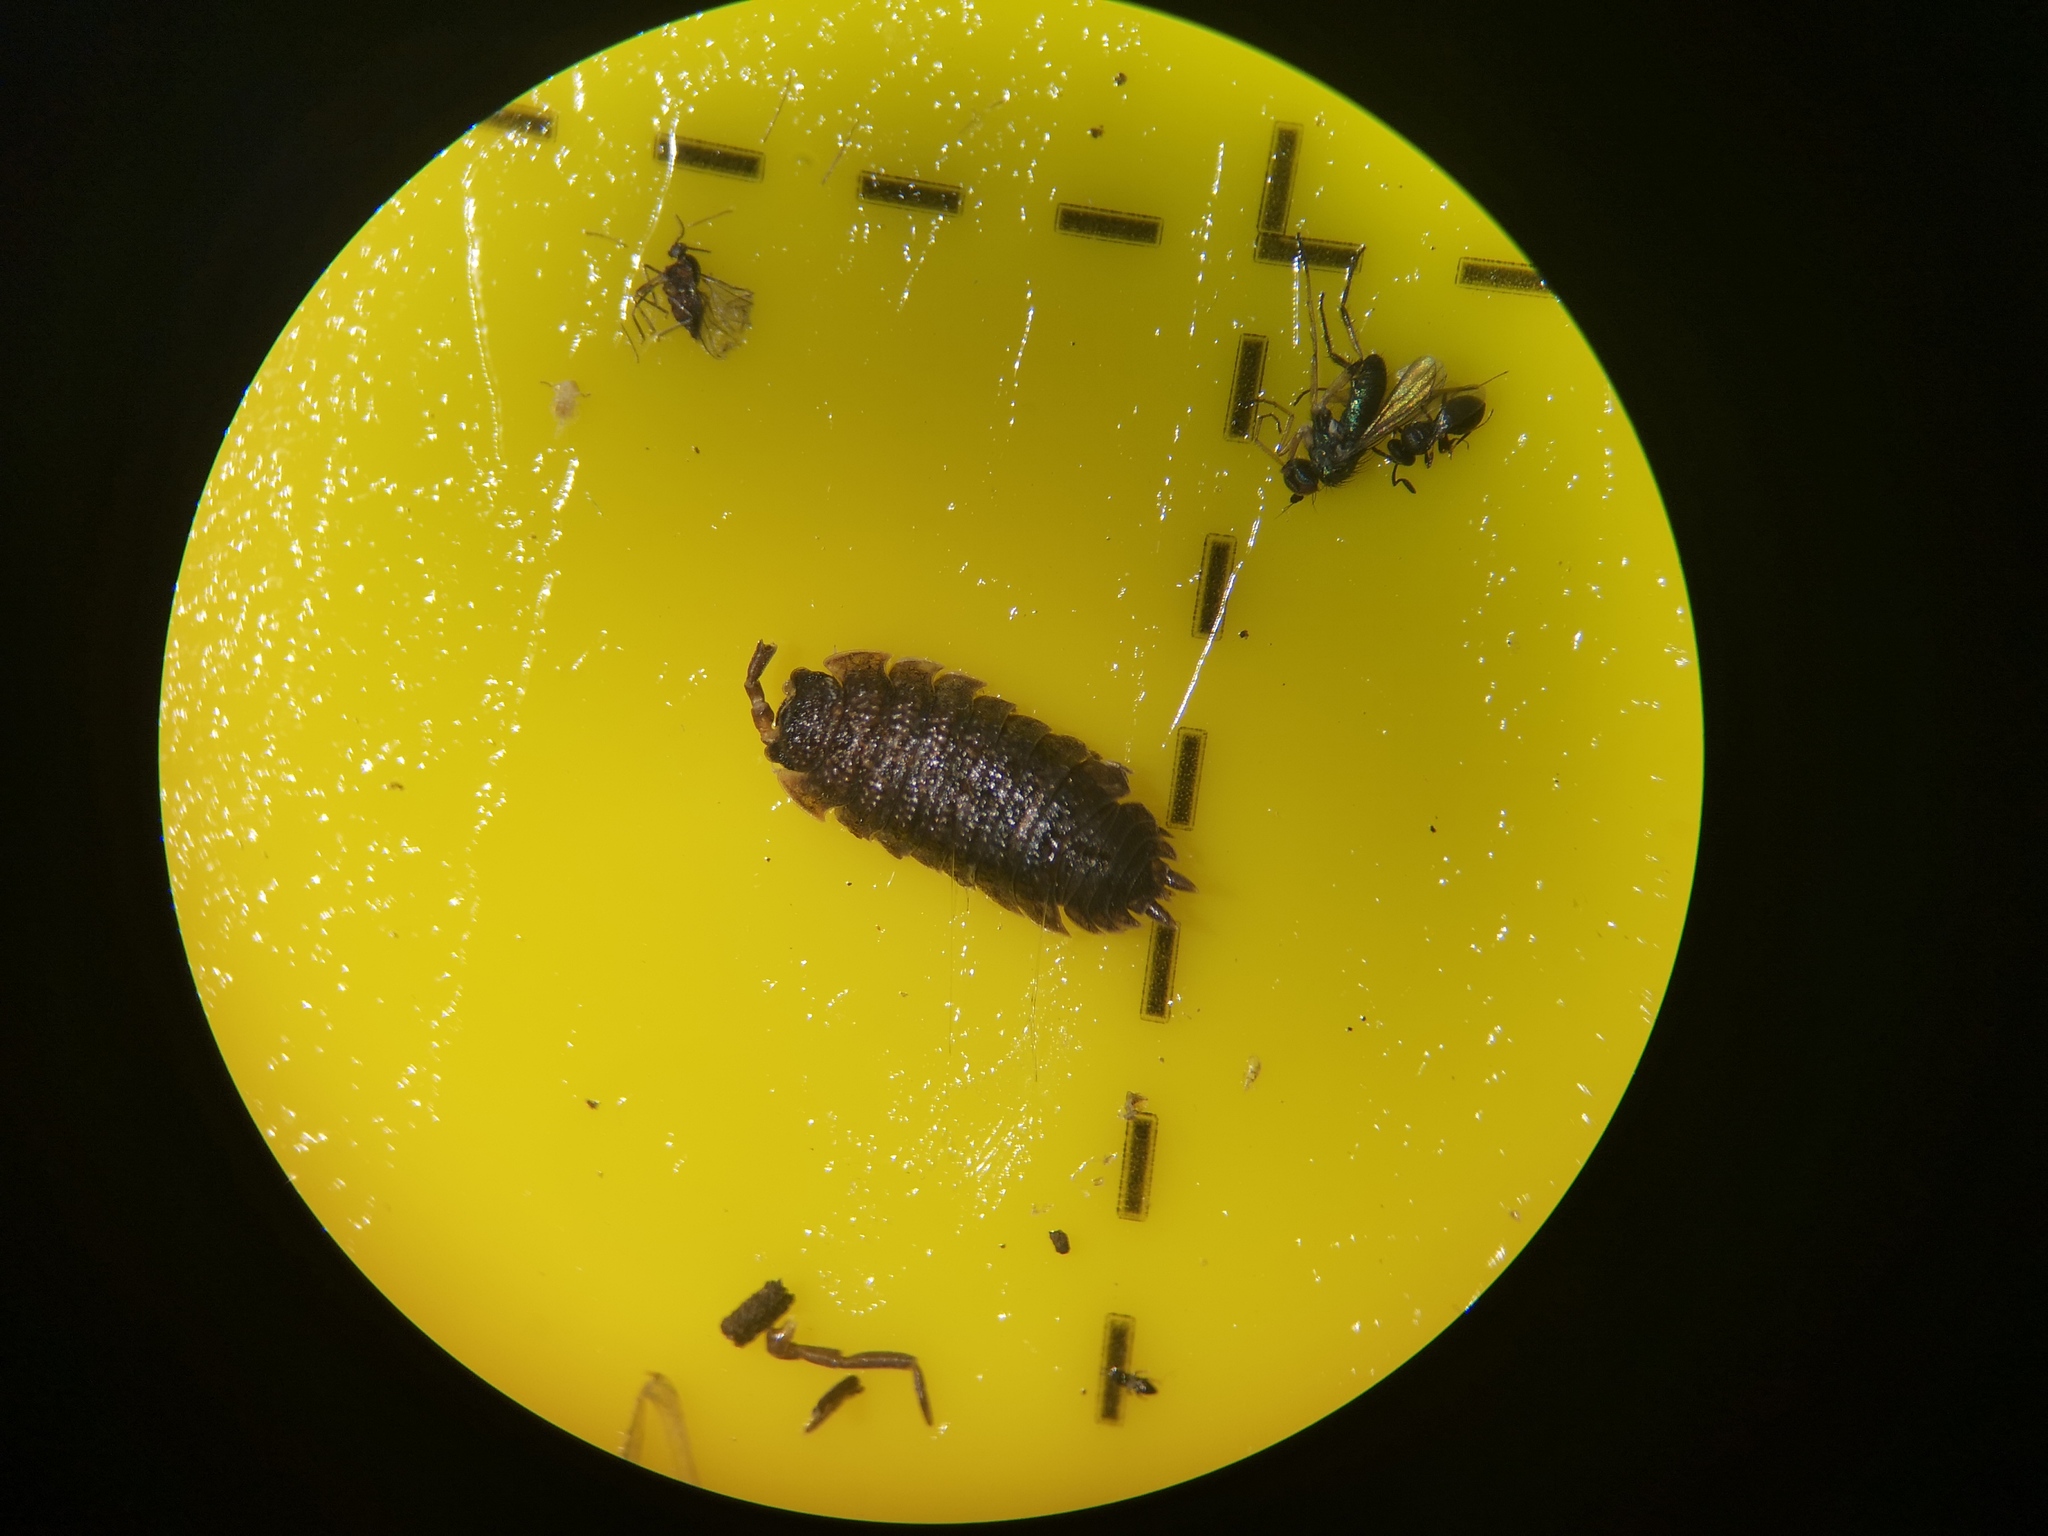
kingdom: Animalia
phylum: Arthropoda
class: Malacostraca
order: Isopoda
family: Porcellionidae
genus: Porcellio
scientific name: Porcellio scaber
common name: Common rough woodlouse
